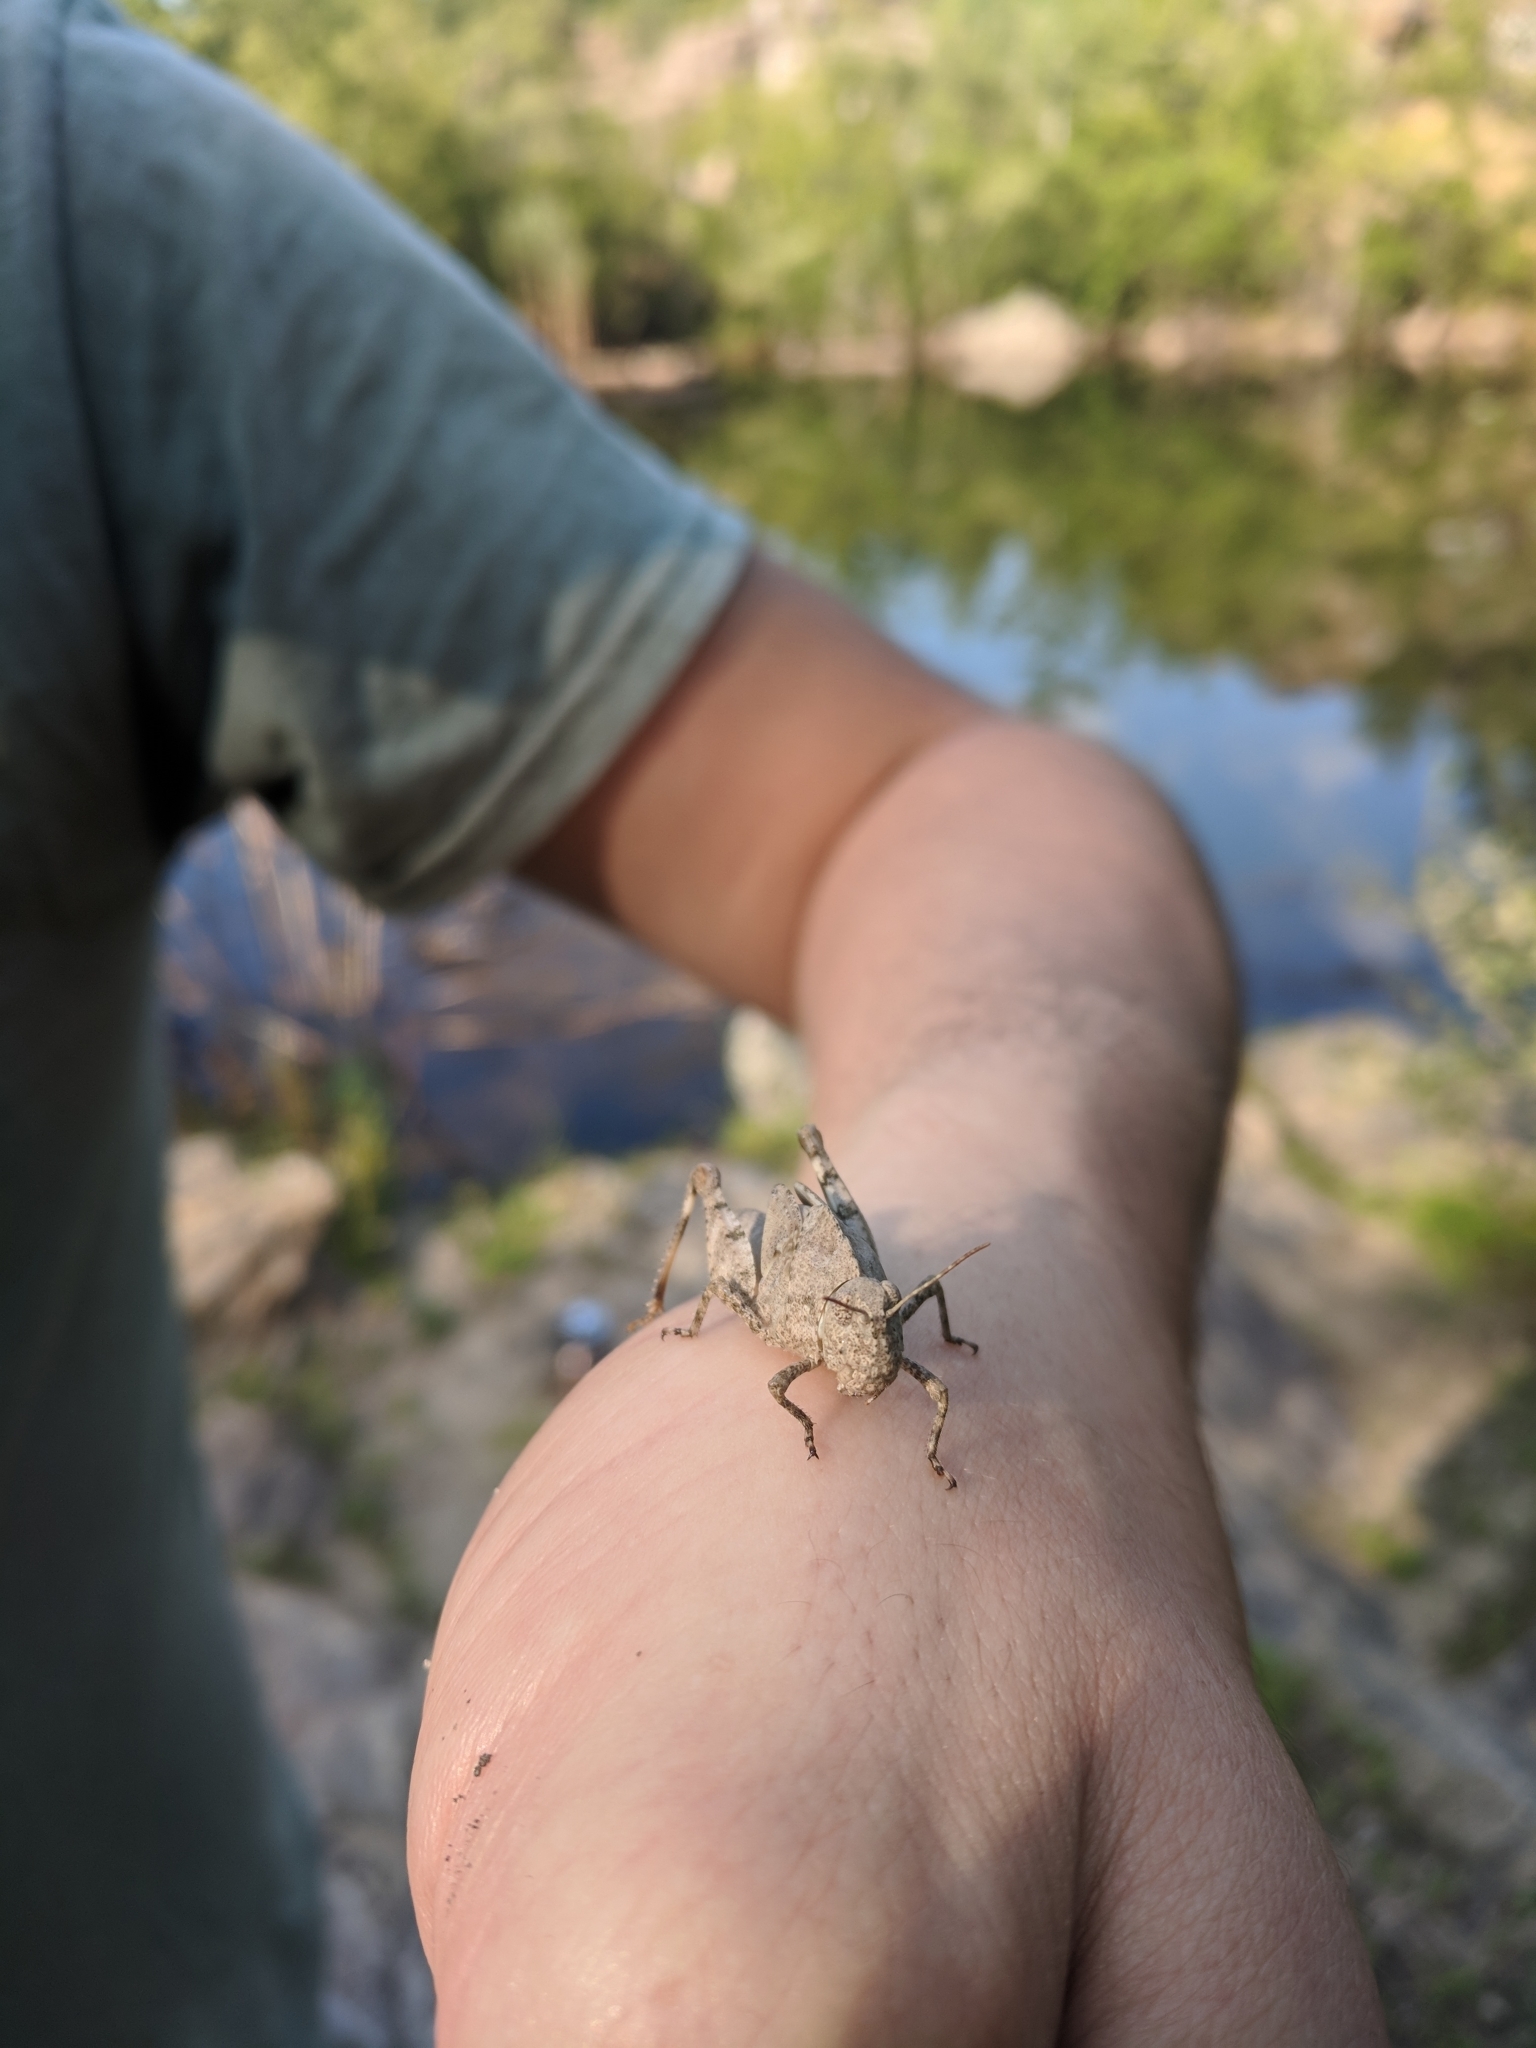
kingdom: Animalia
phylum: Arthropoda
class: Insecta
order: Orthoptera
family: Acrididae
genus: Dissosteira
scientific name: Dissosteira carolina
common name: Carolina grasshopper
